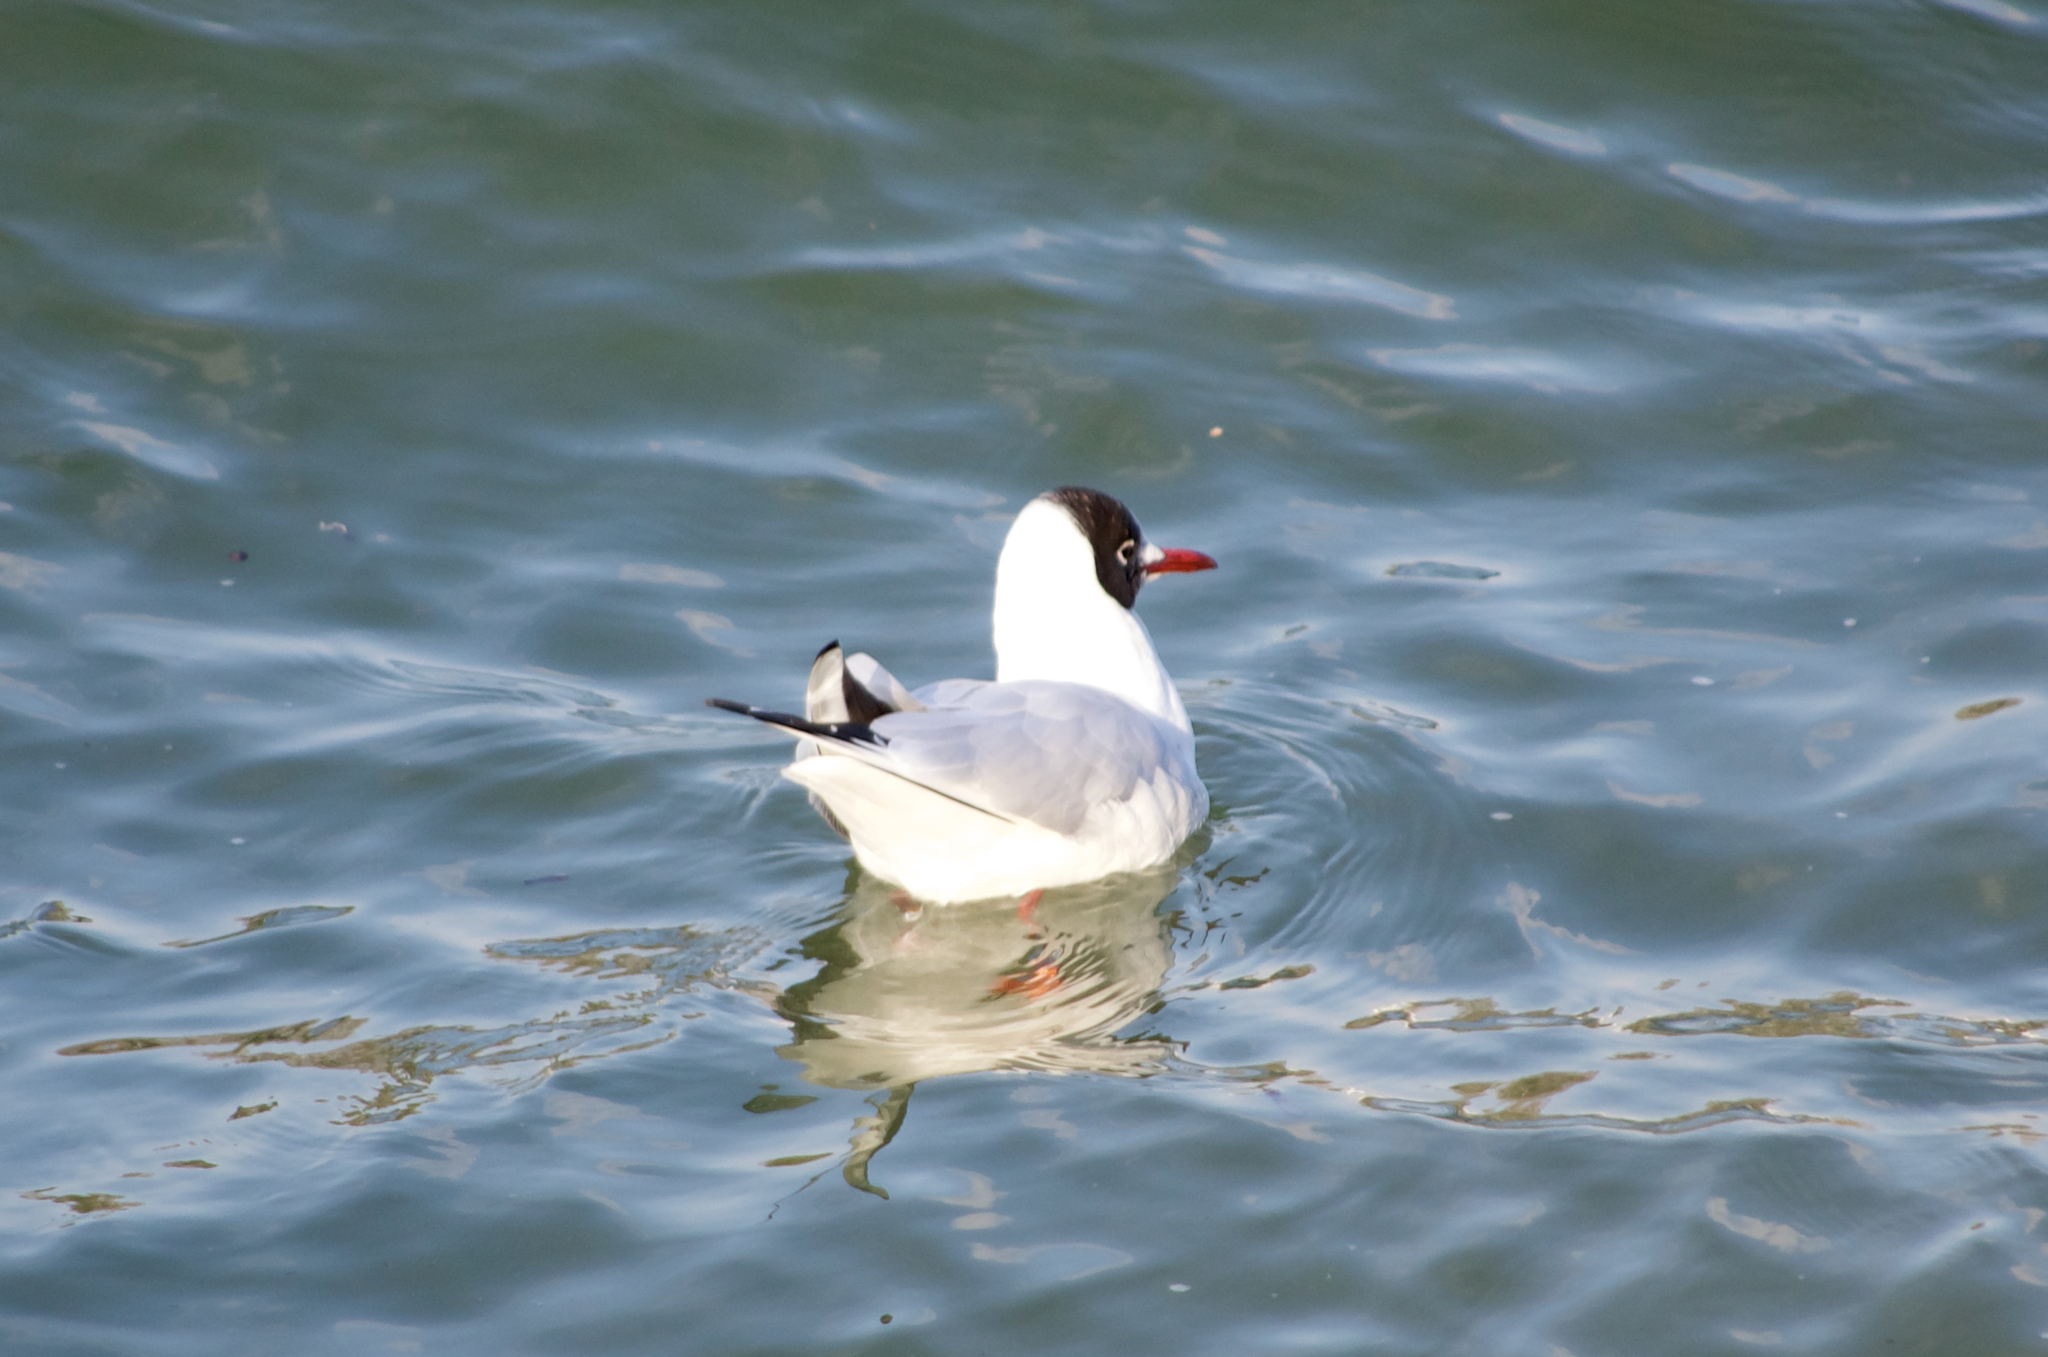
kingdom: Animalia
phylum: Chordata
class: Aves
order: Charadriiformes
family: Laridae
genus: Chroicocephalus
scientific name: Chroicocephalus ridibundus
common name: Black-headed gull
